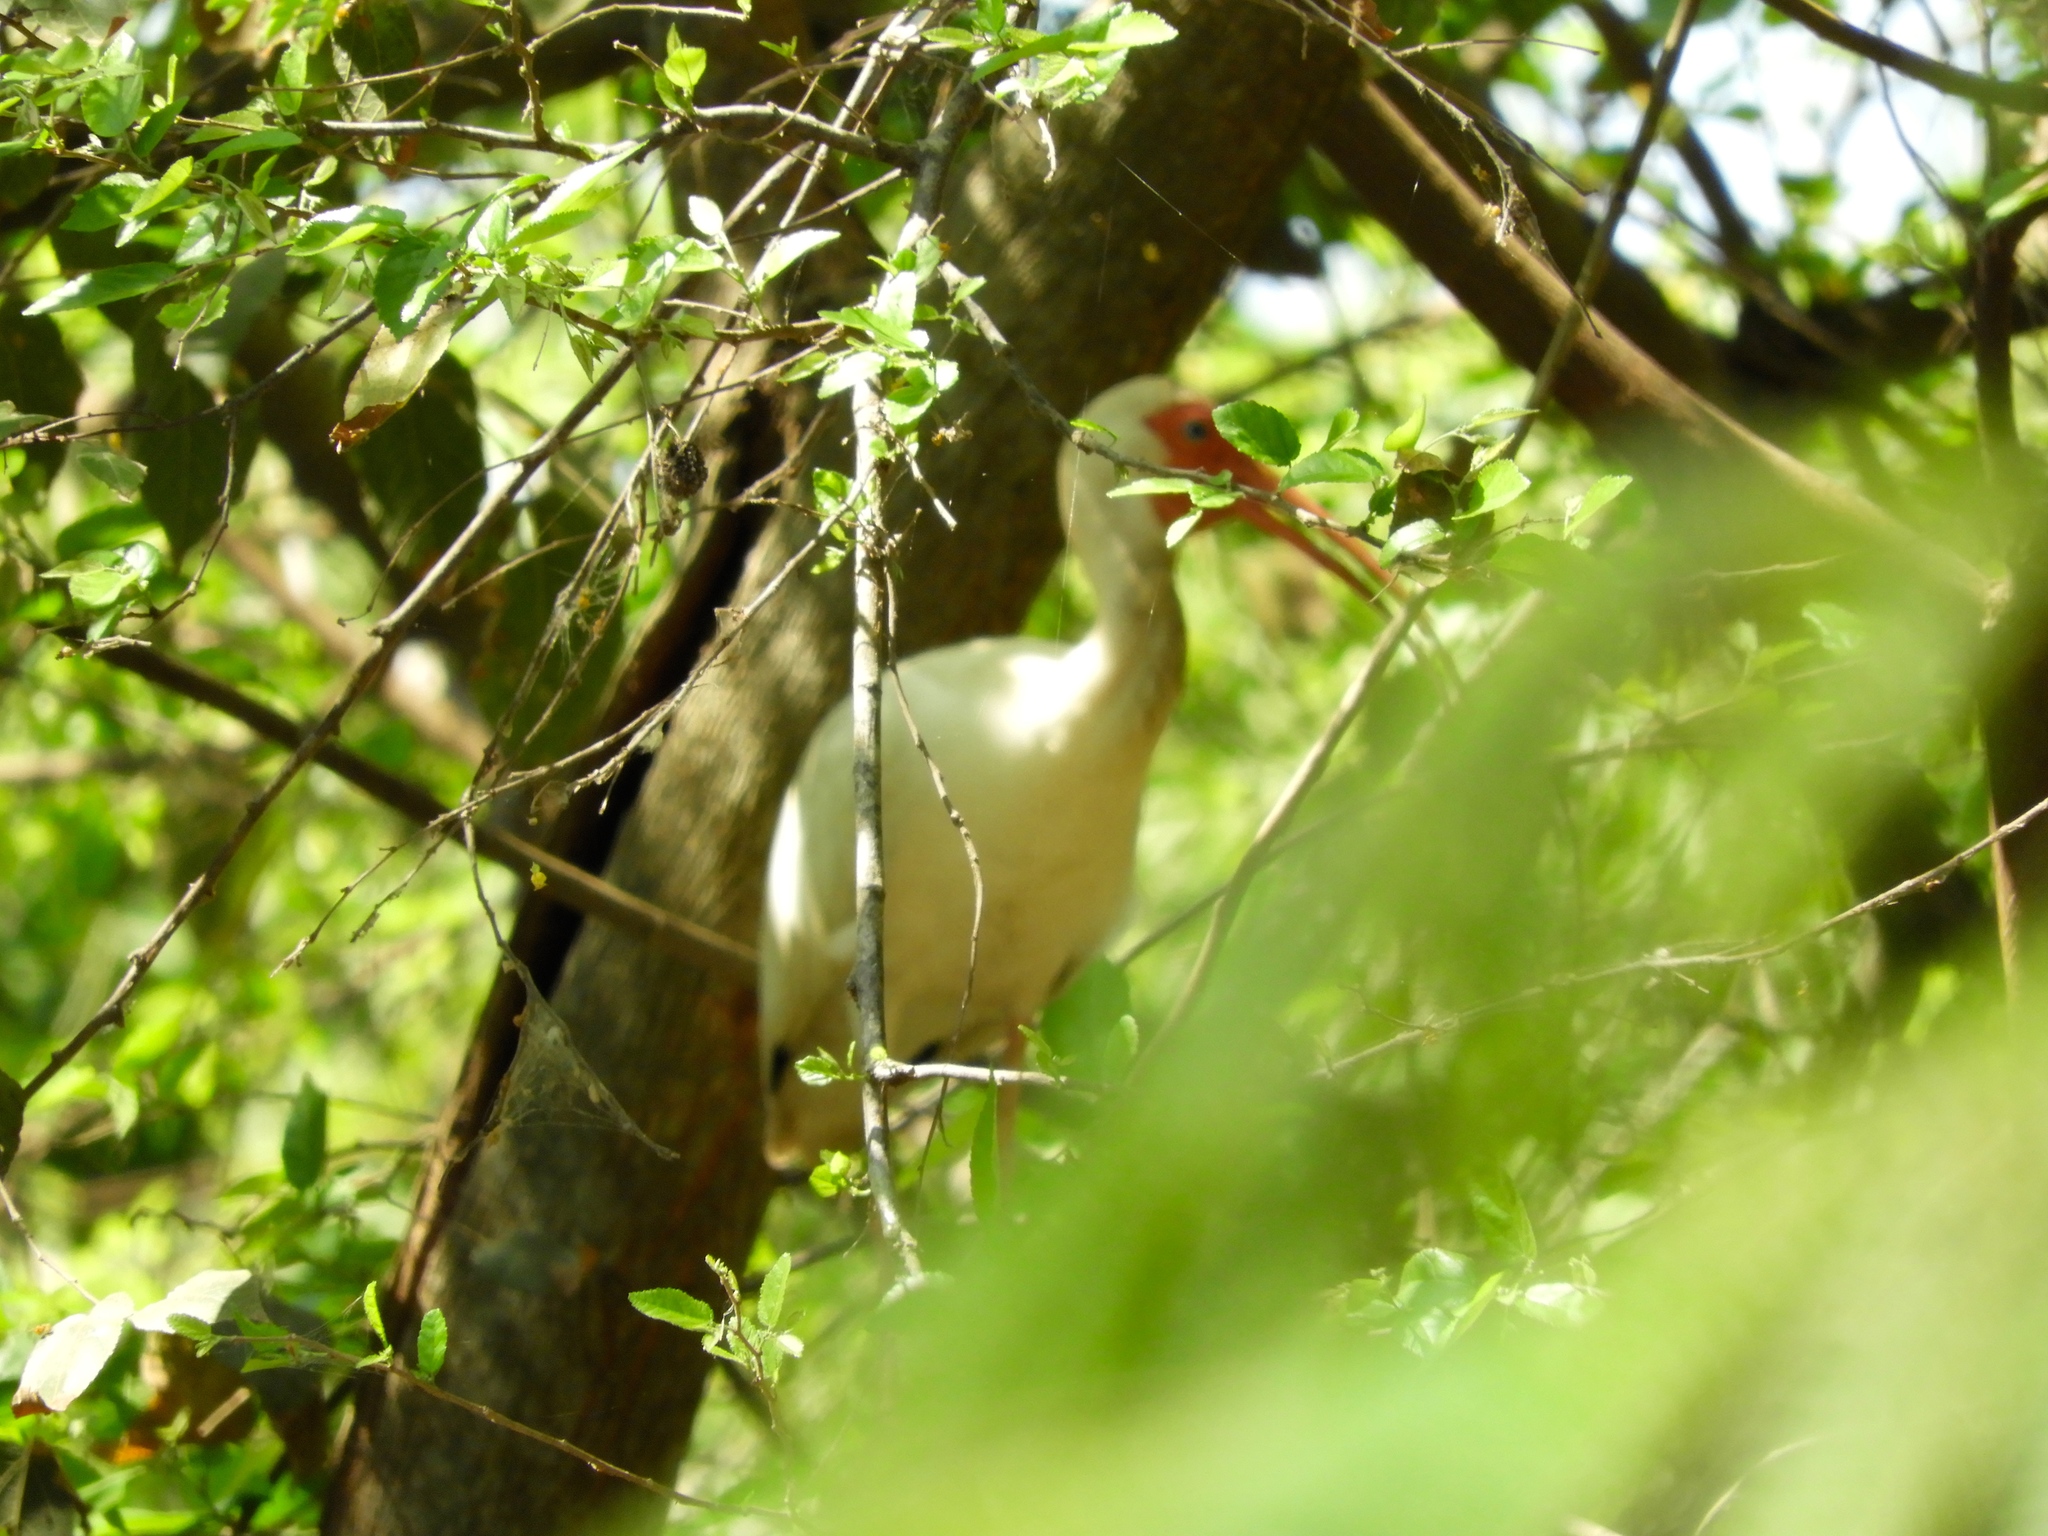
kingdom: Animalia
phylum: Chordata
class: Aves
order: Pelecaniformes
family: Threskiornithidae
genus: Eudocimus
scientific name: Eudocimus albus
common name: White ibis
